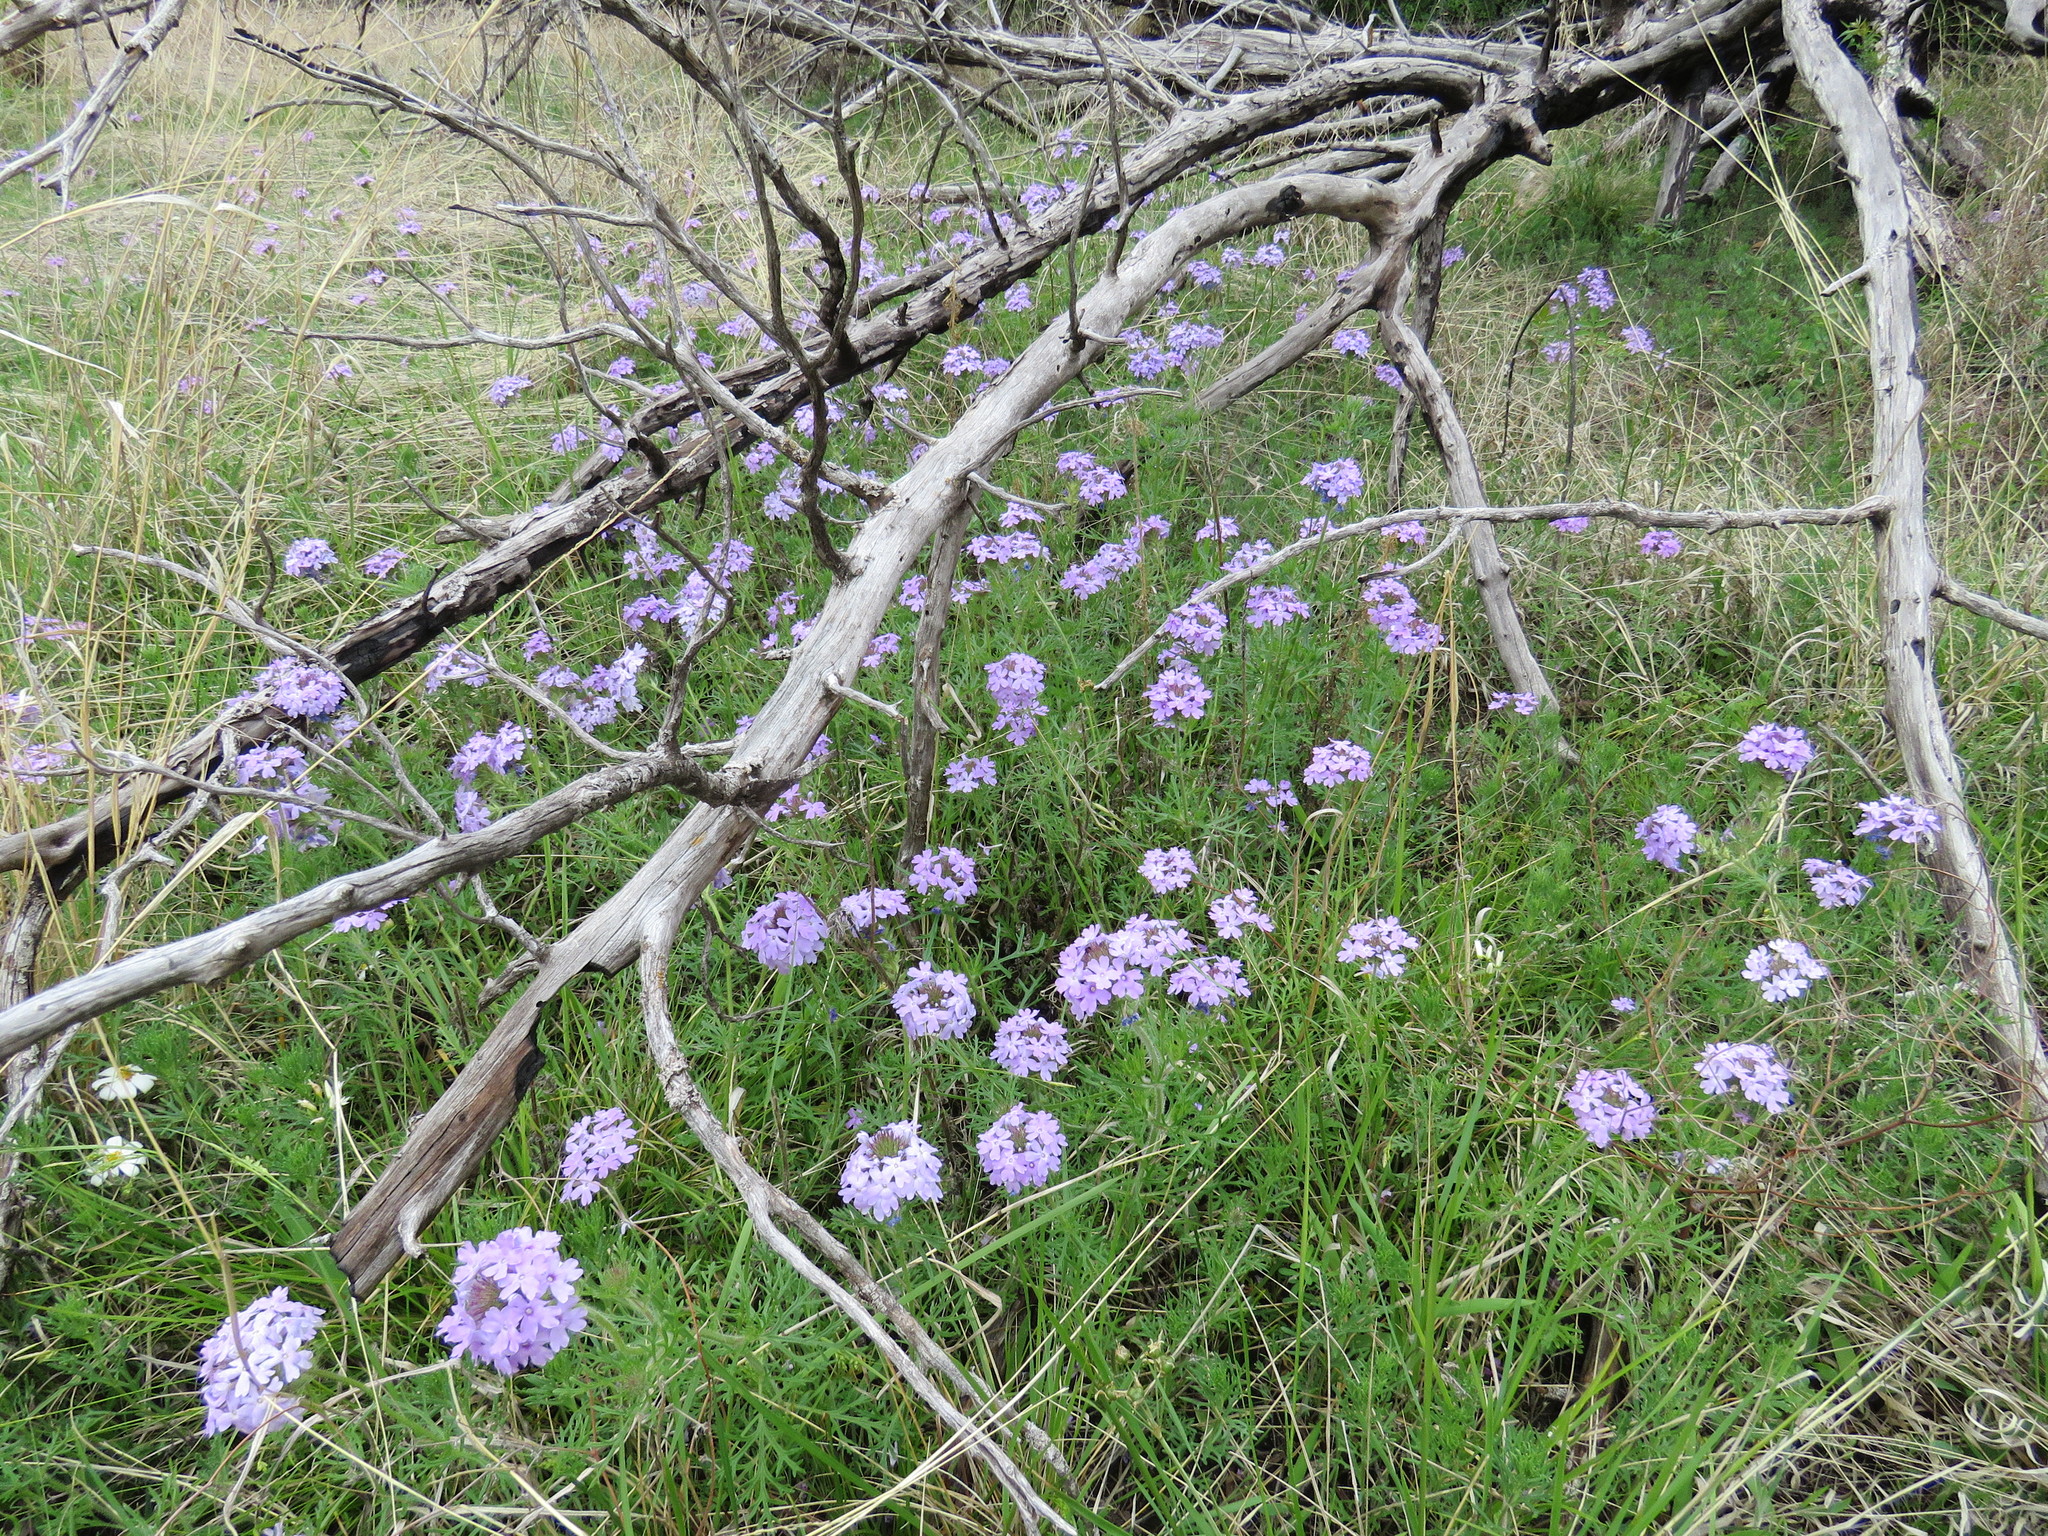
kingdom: Plantae
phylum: Tracheophyta
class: Magnoliopsida
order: Lamiales
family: Verbenaceae
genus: Verbena
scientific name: Verbena bipinnatifida
